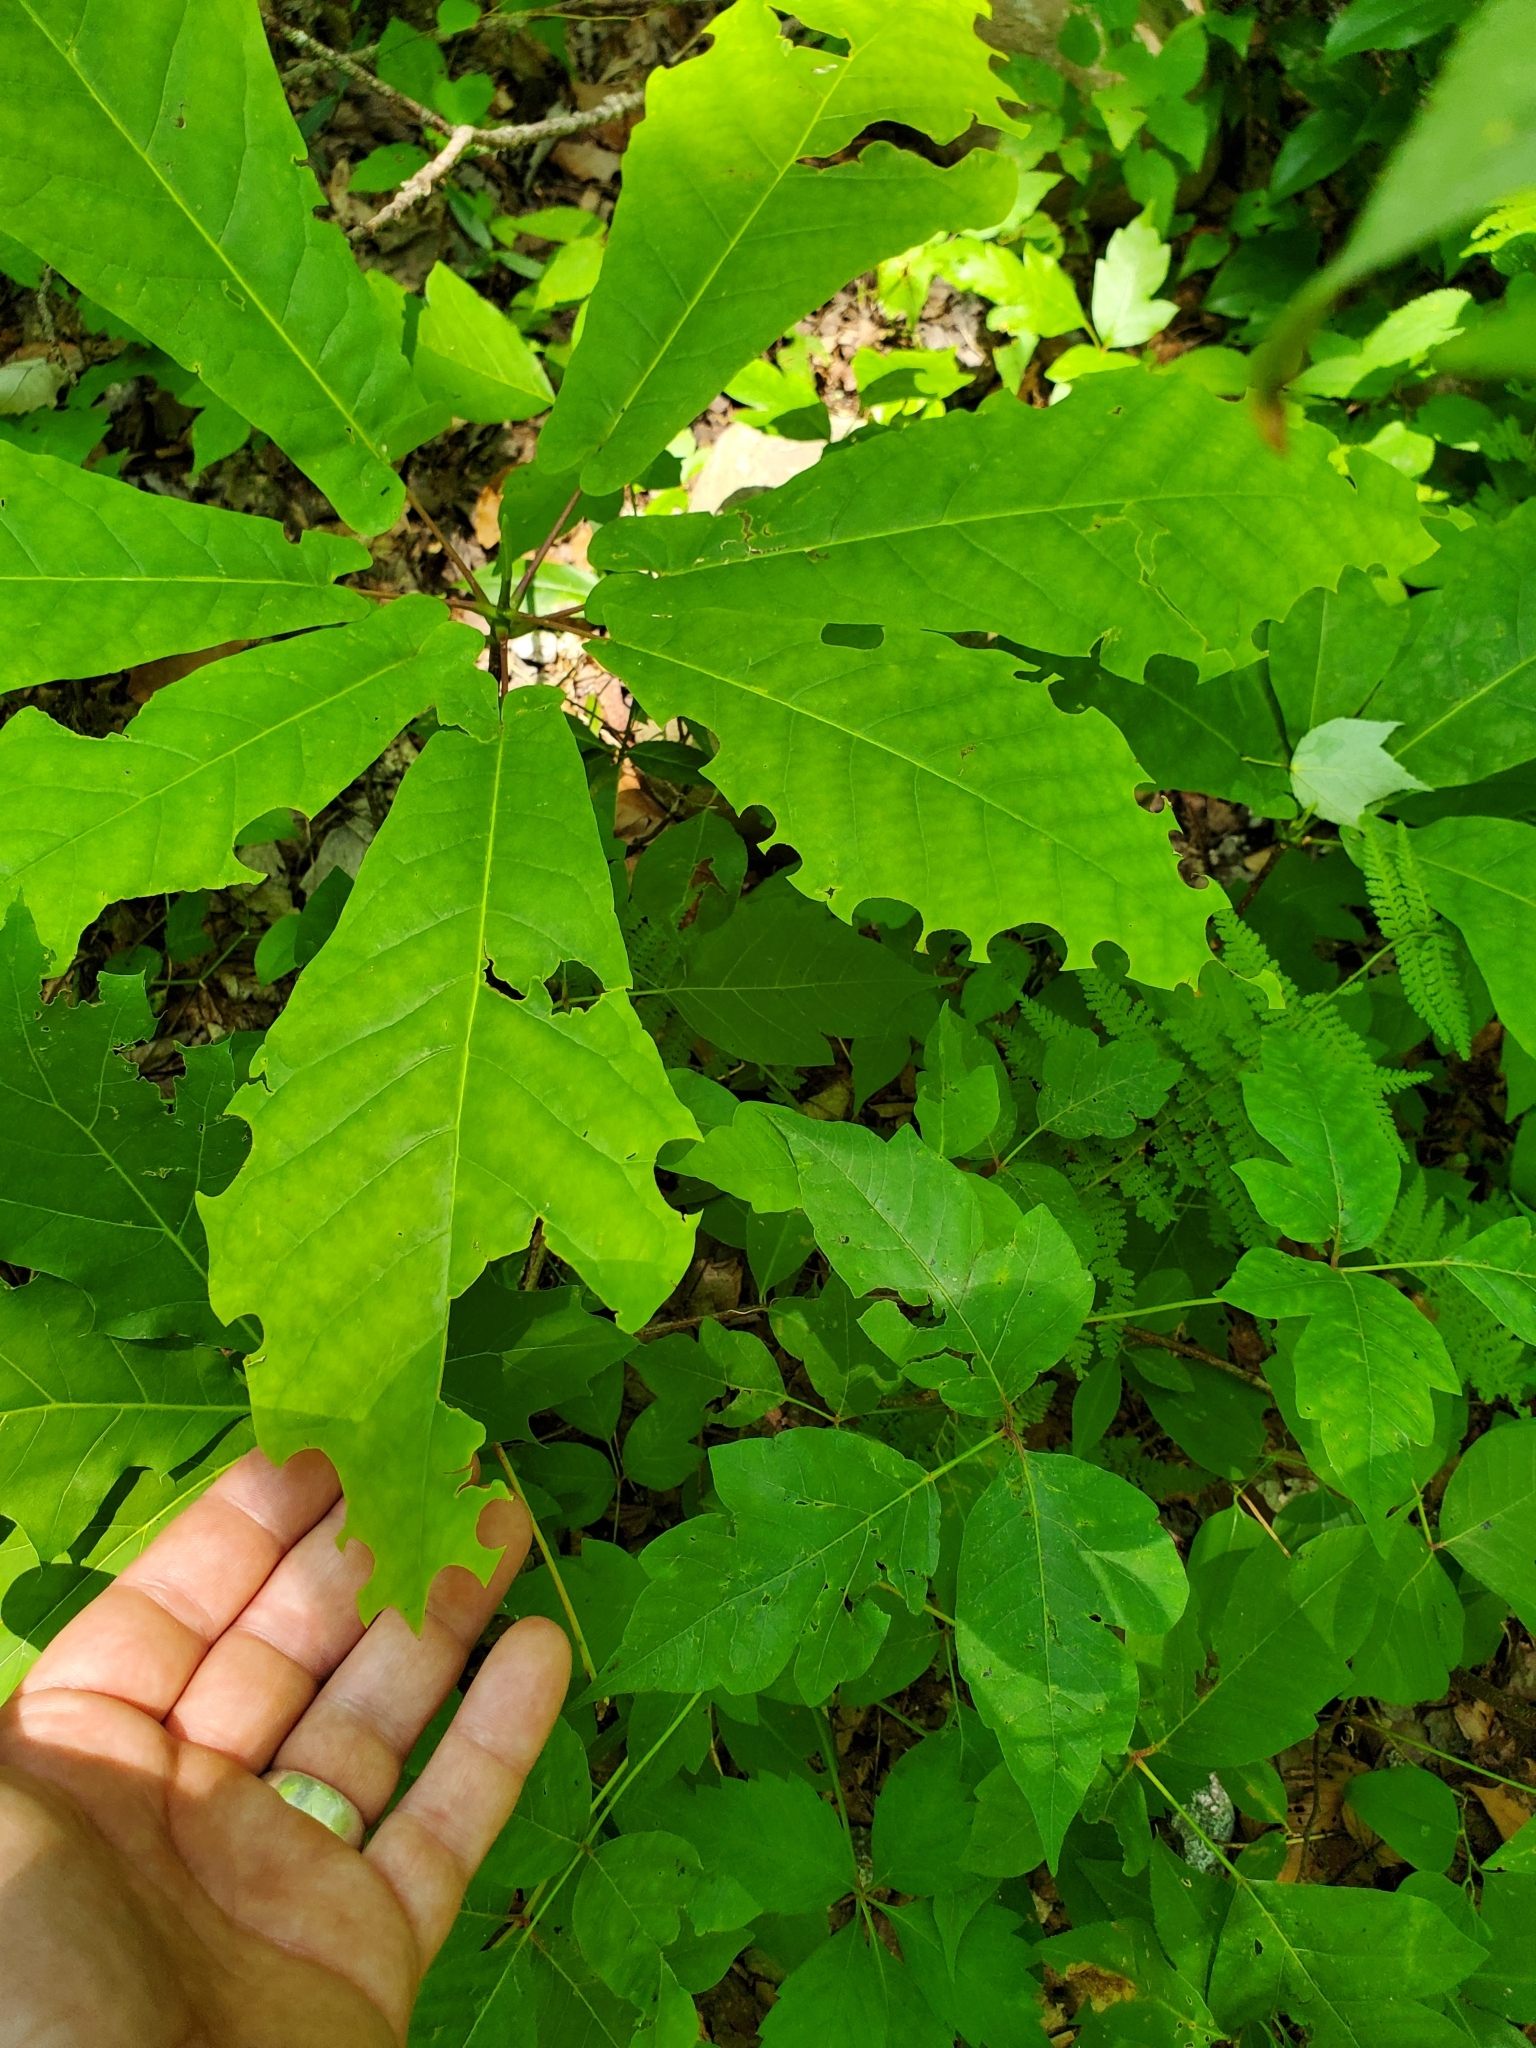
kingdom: Plantae
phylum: Tracheophyta
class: Magnoliopsida
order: Magnoliales
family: Magnoliaceae
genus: Magnolia
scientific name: Magnolia fraseri
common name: Fraser's magnolia
